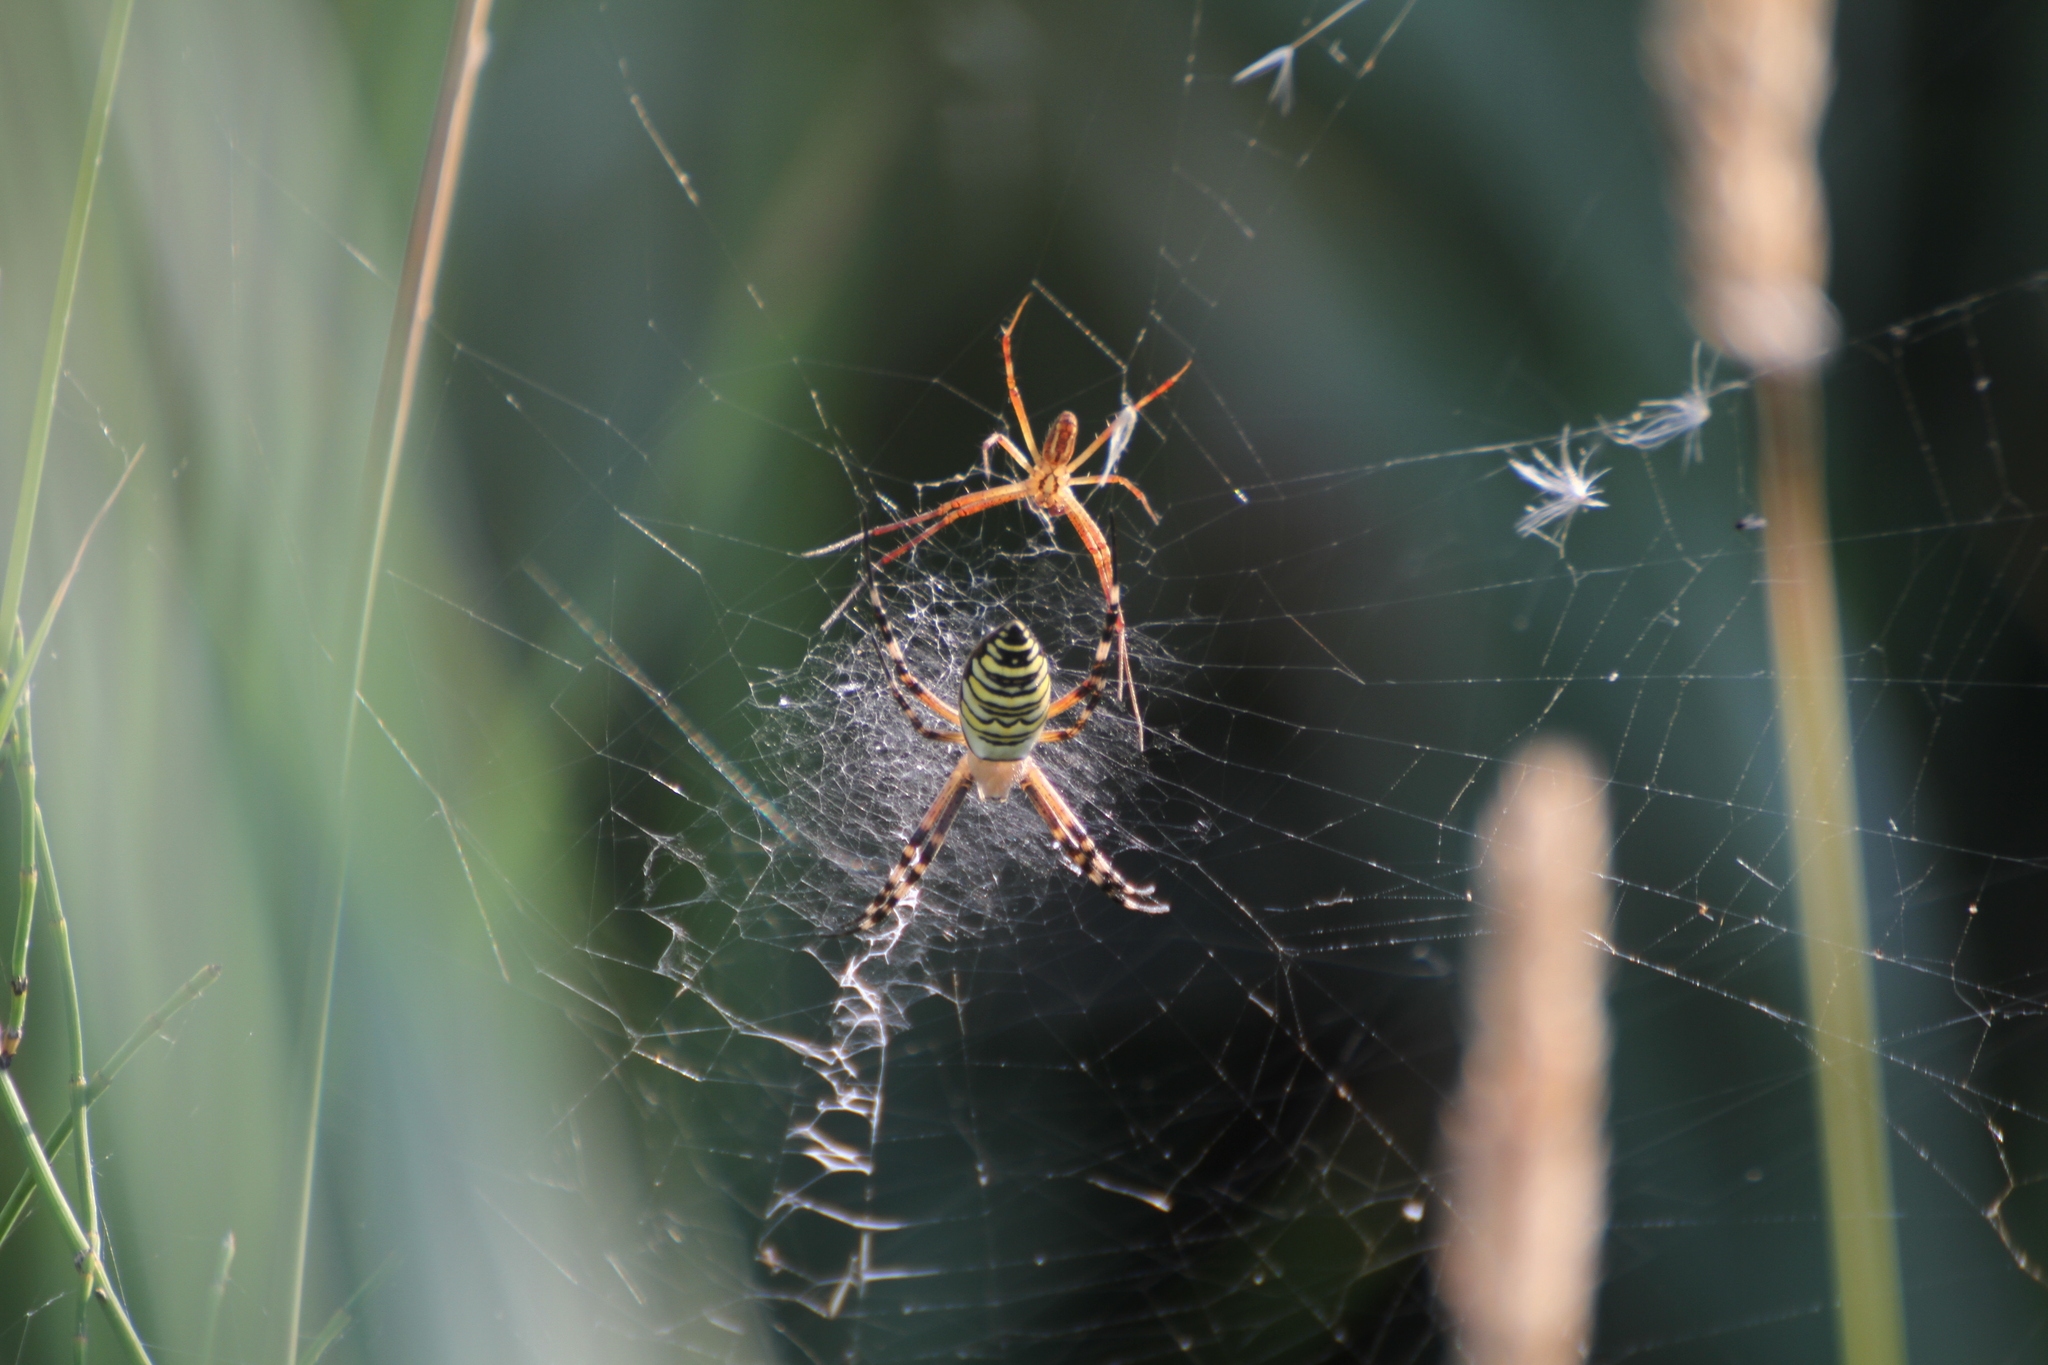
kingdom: Animalia
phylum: Arthropoda
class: Arachnida
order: Araneae
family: Araneidae
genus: Argiope
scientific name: Argiope bruennichi
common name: Wasp spider
